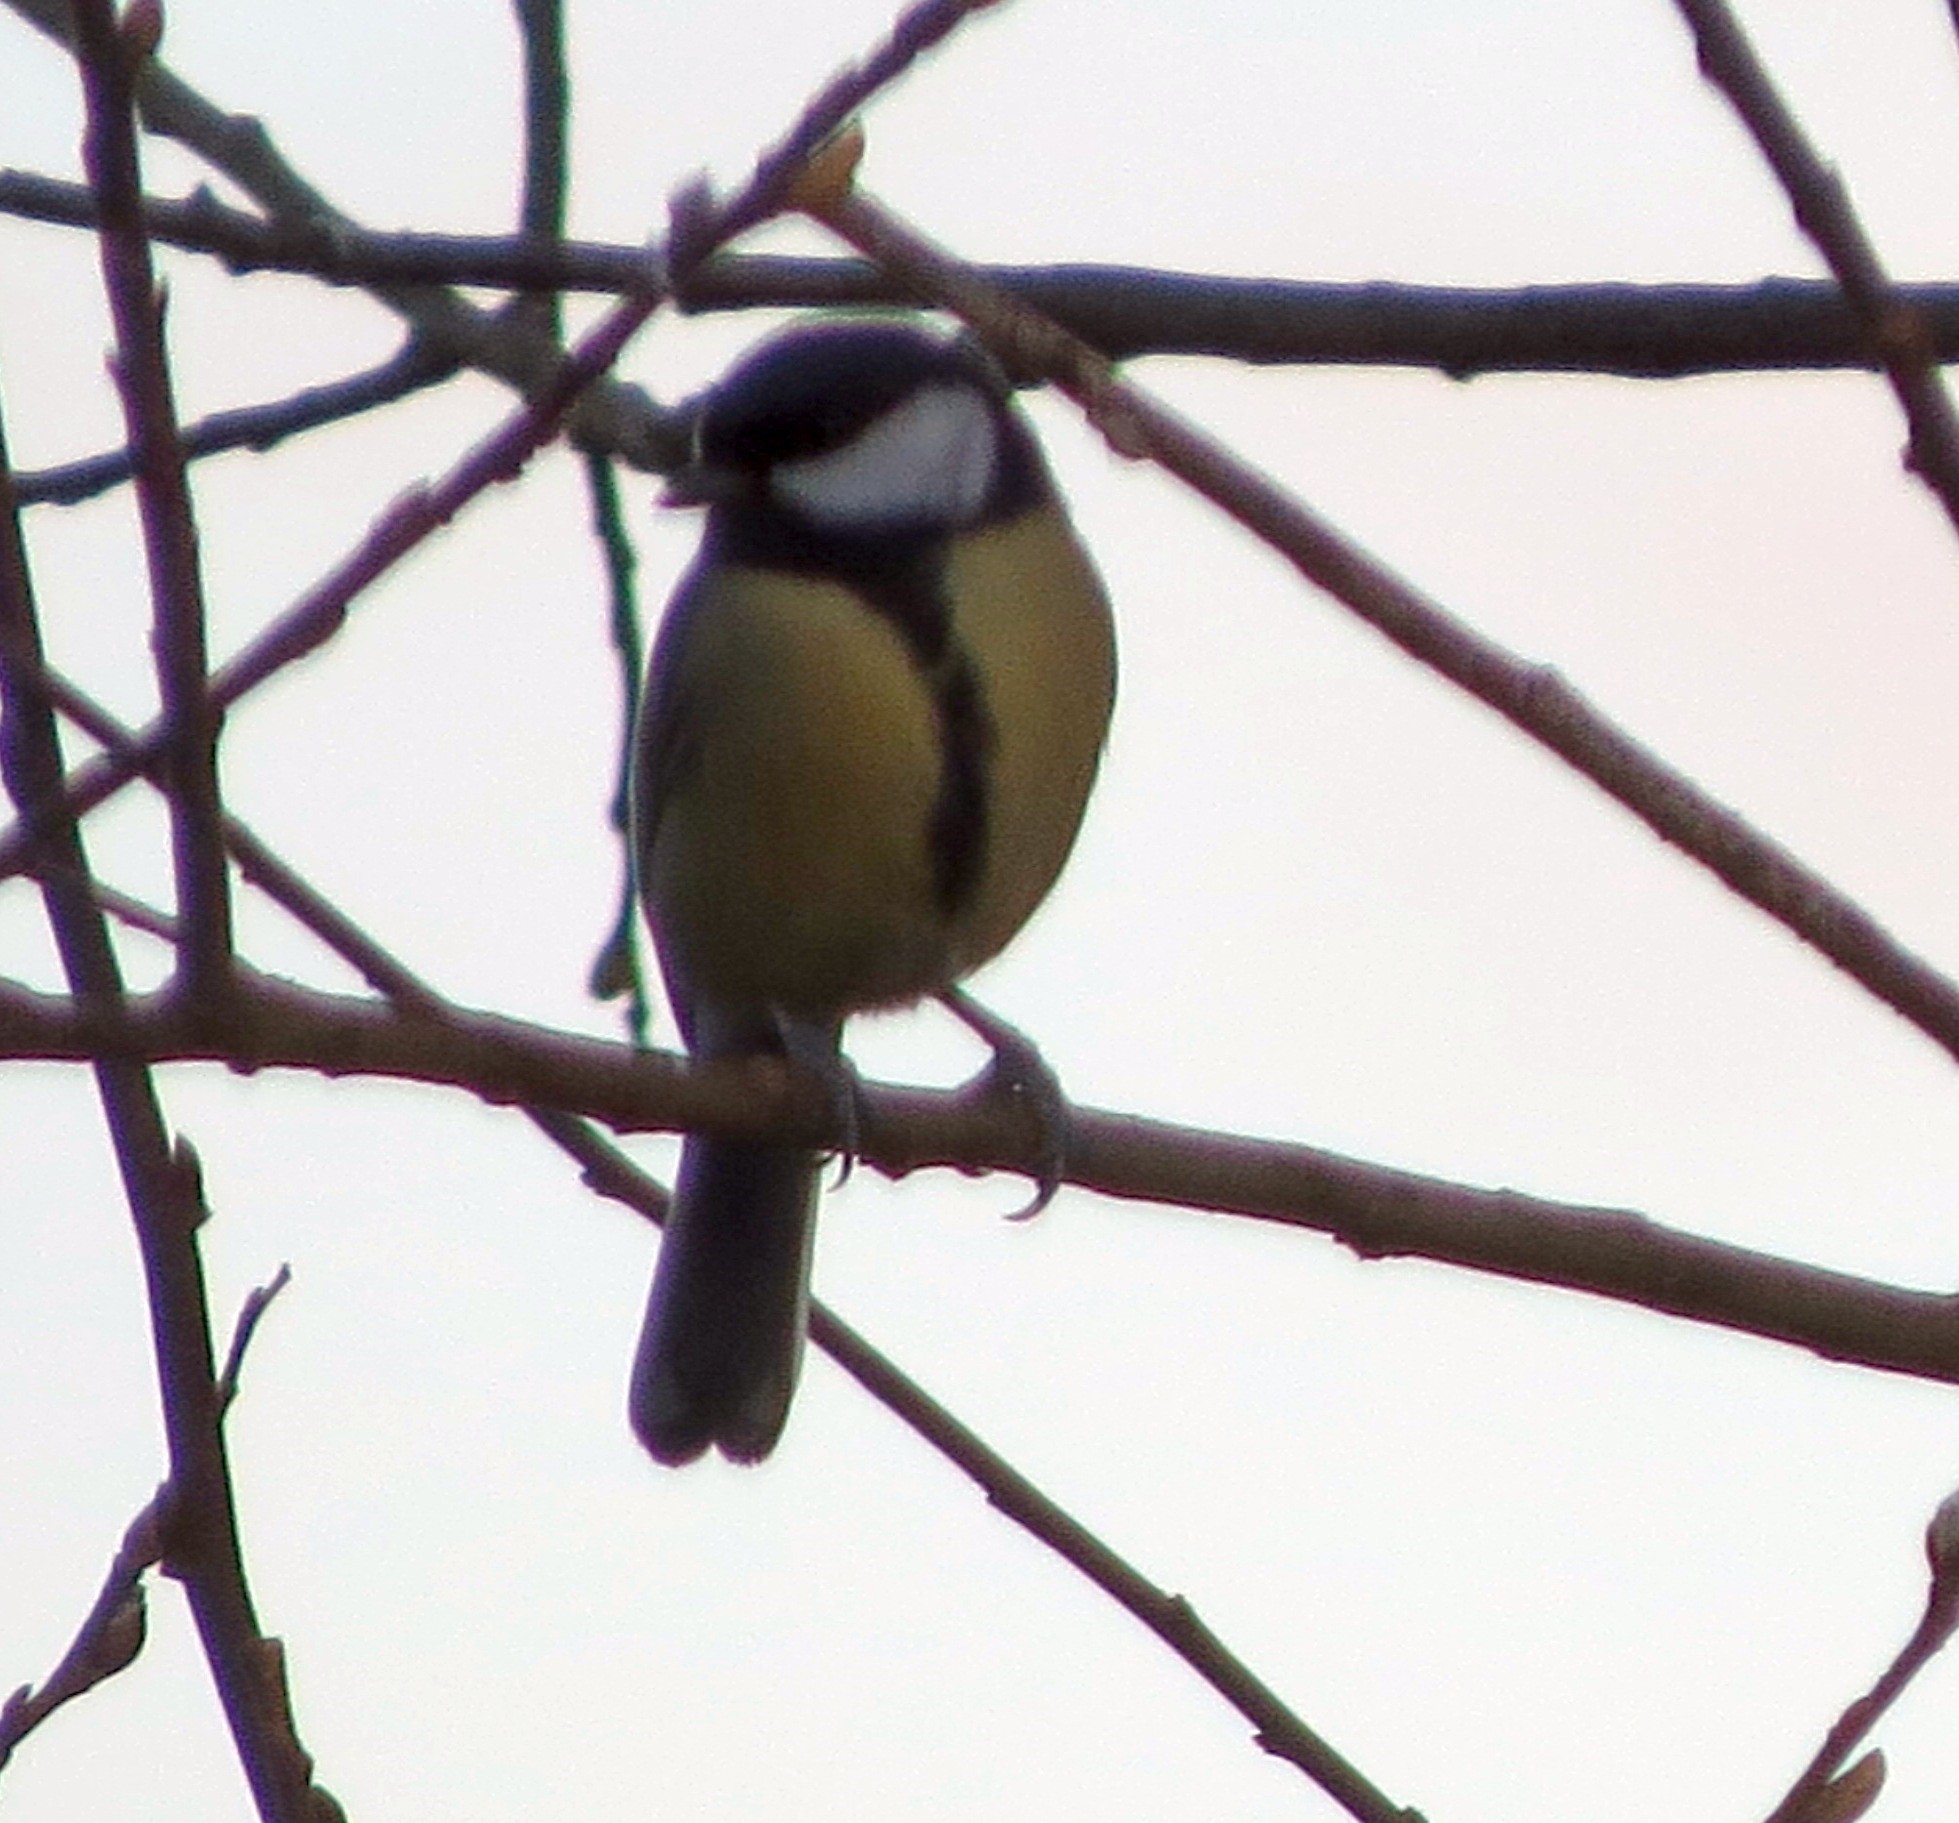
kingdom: Animalia
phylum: Chordata
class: Aves
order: Passeriformes
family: Paridae
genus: Parus
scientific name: Parus major
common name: Great tit
